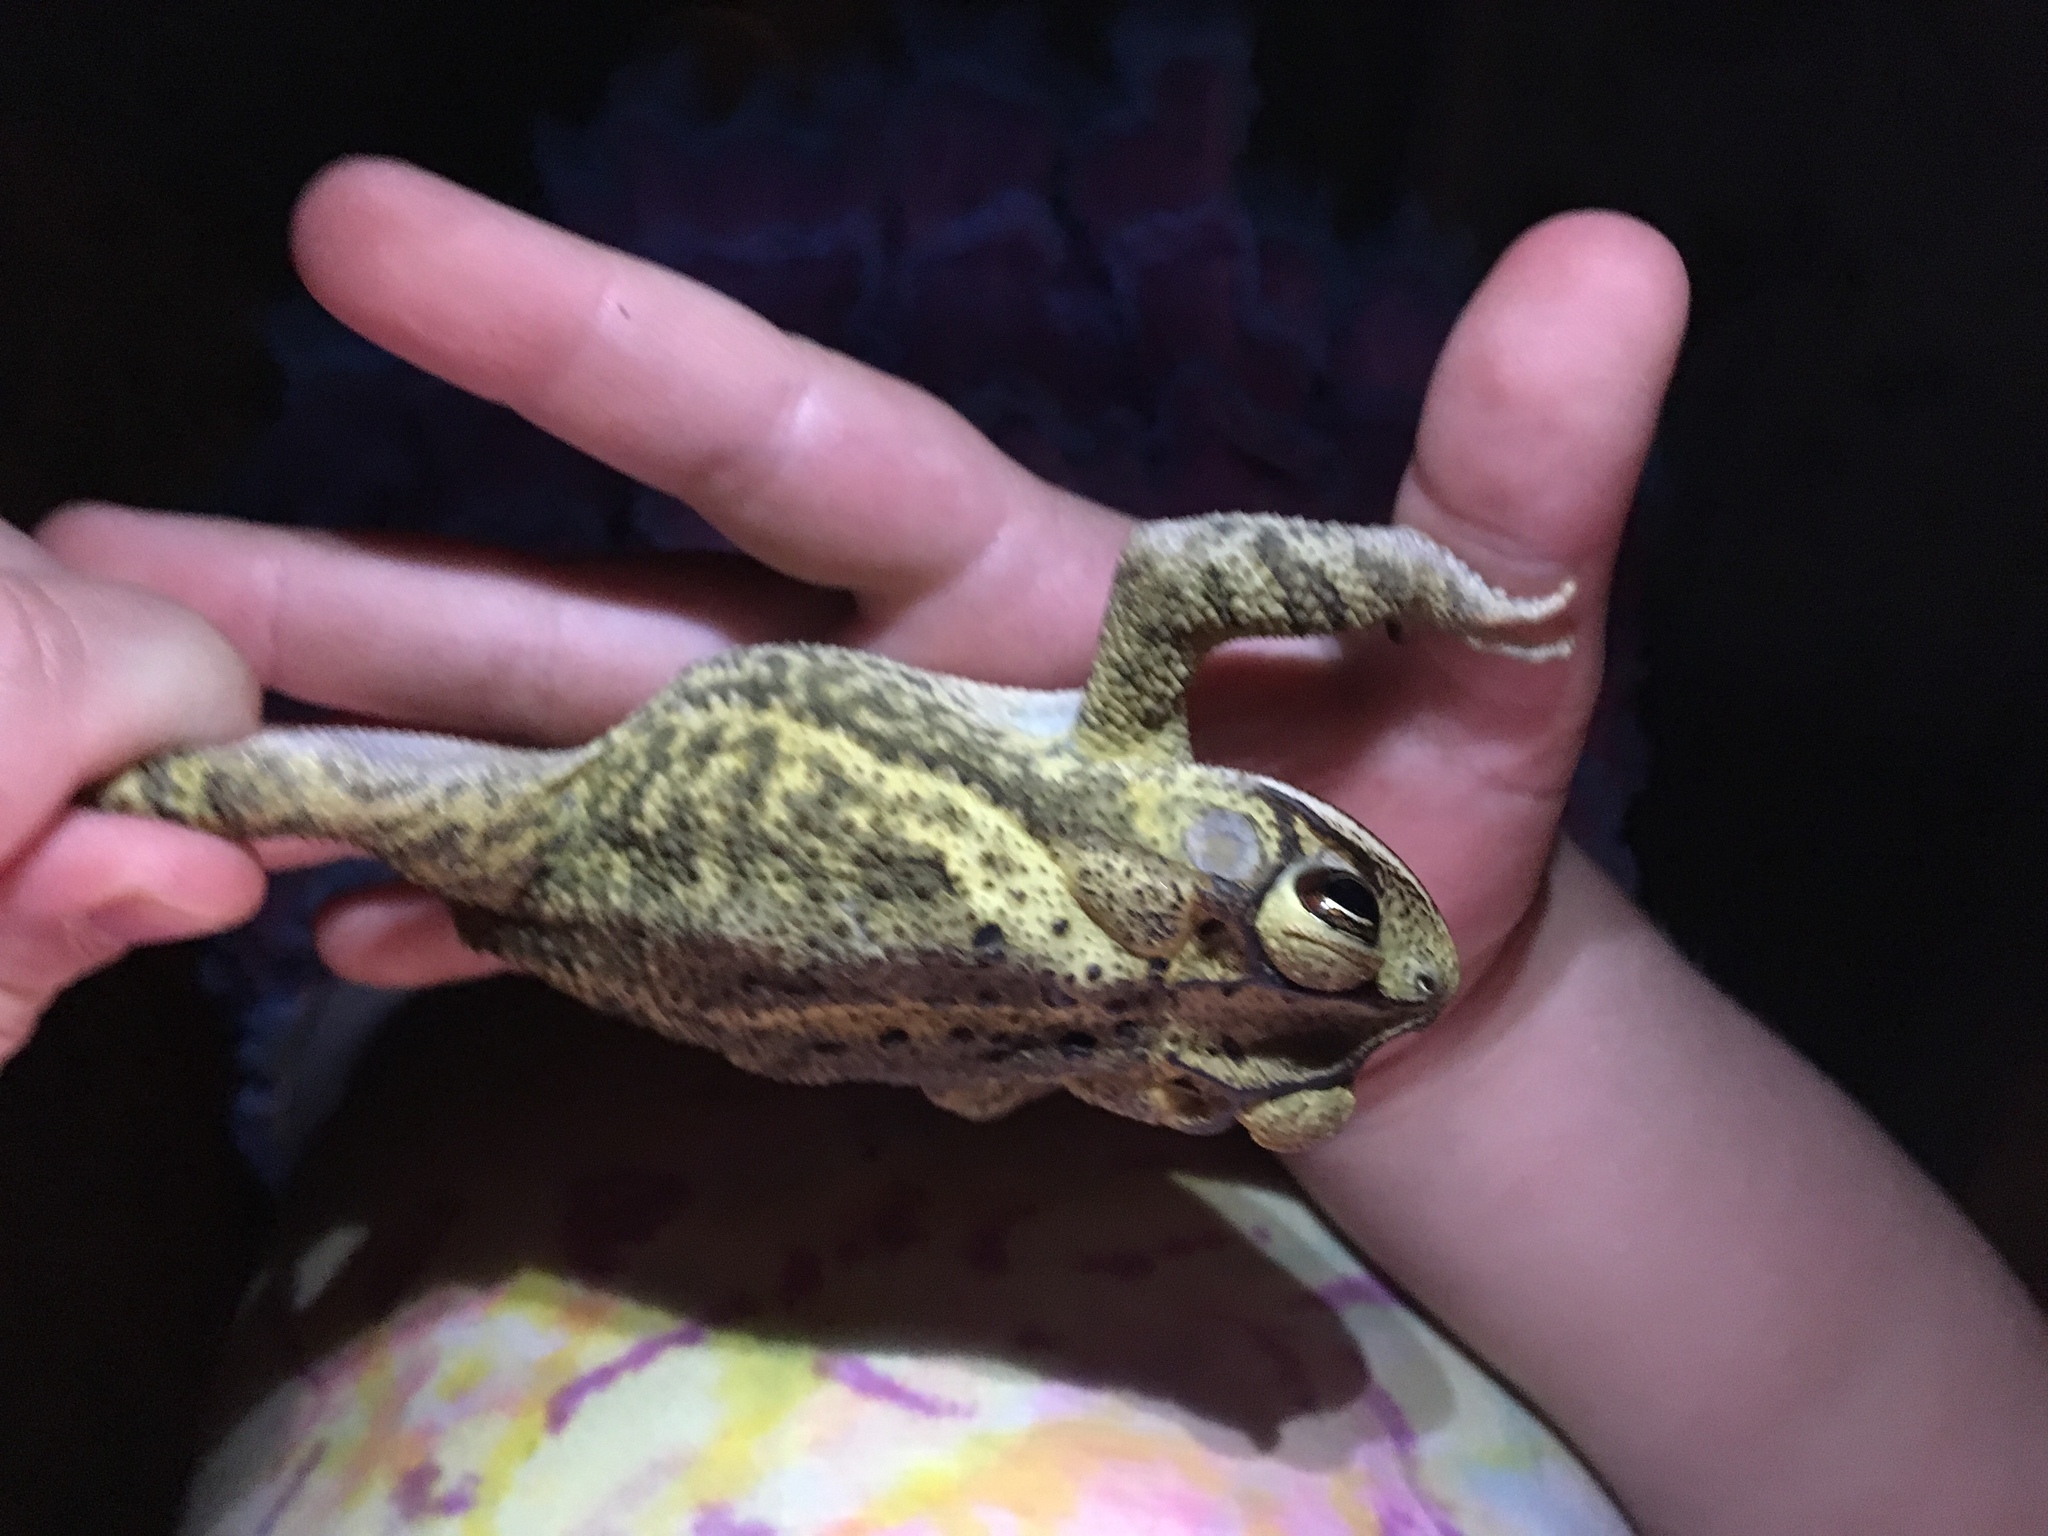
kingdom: Animalia
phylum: Chordata
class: Amphibia
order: Anura
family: Bufonidae
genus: Incilius
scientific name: Incilius nebulifer
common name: Gulf coast toad
